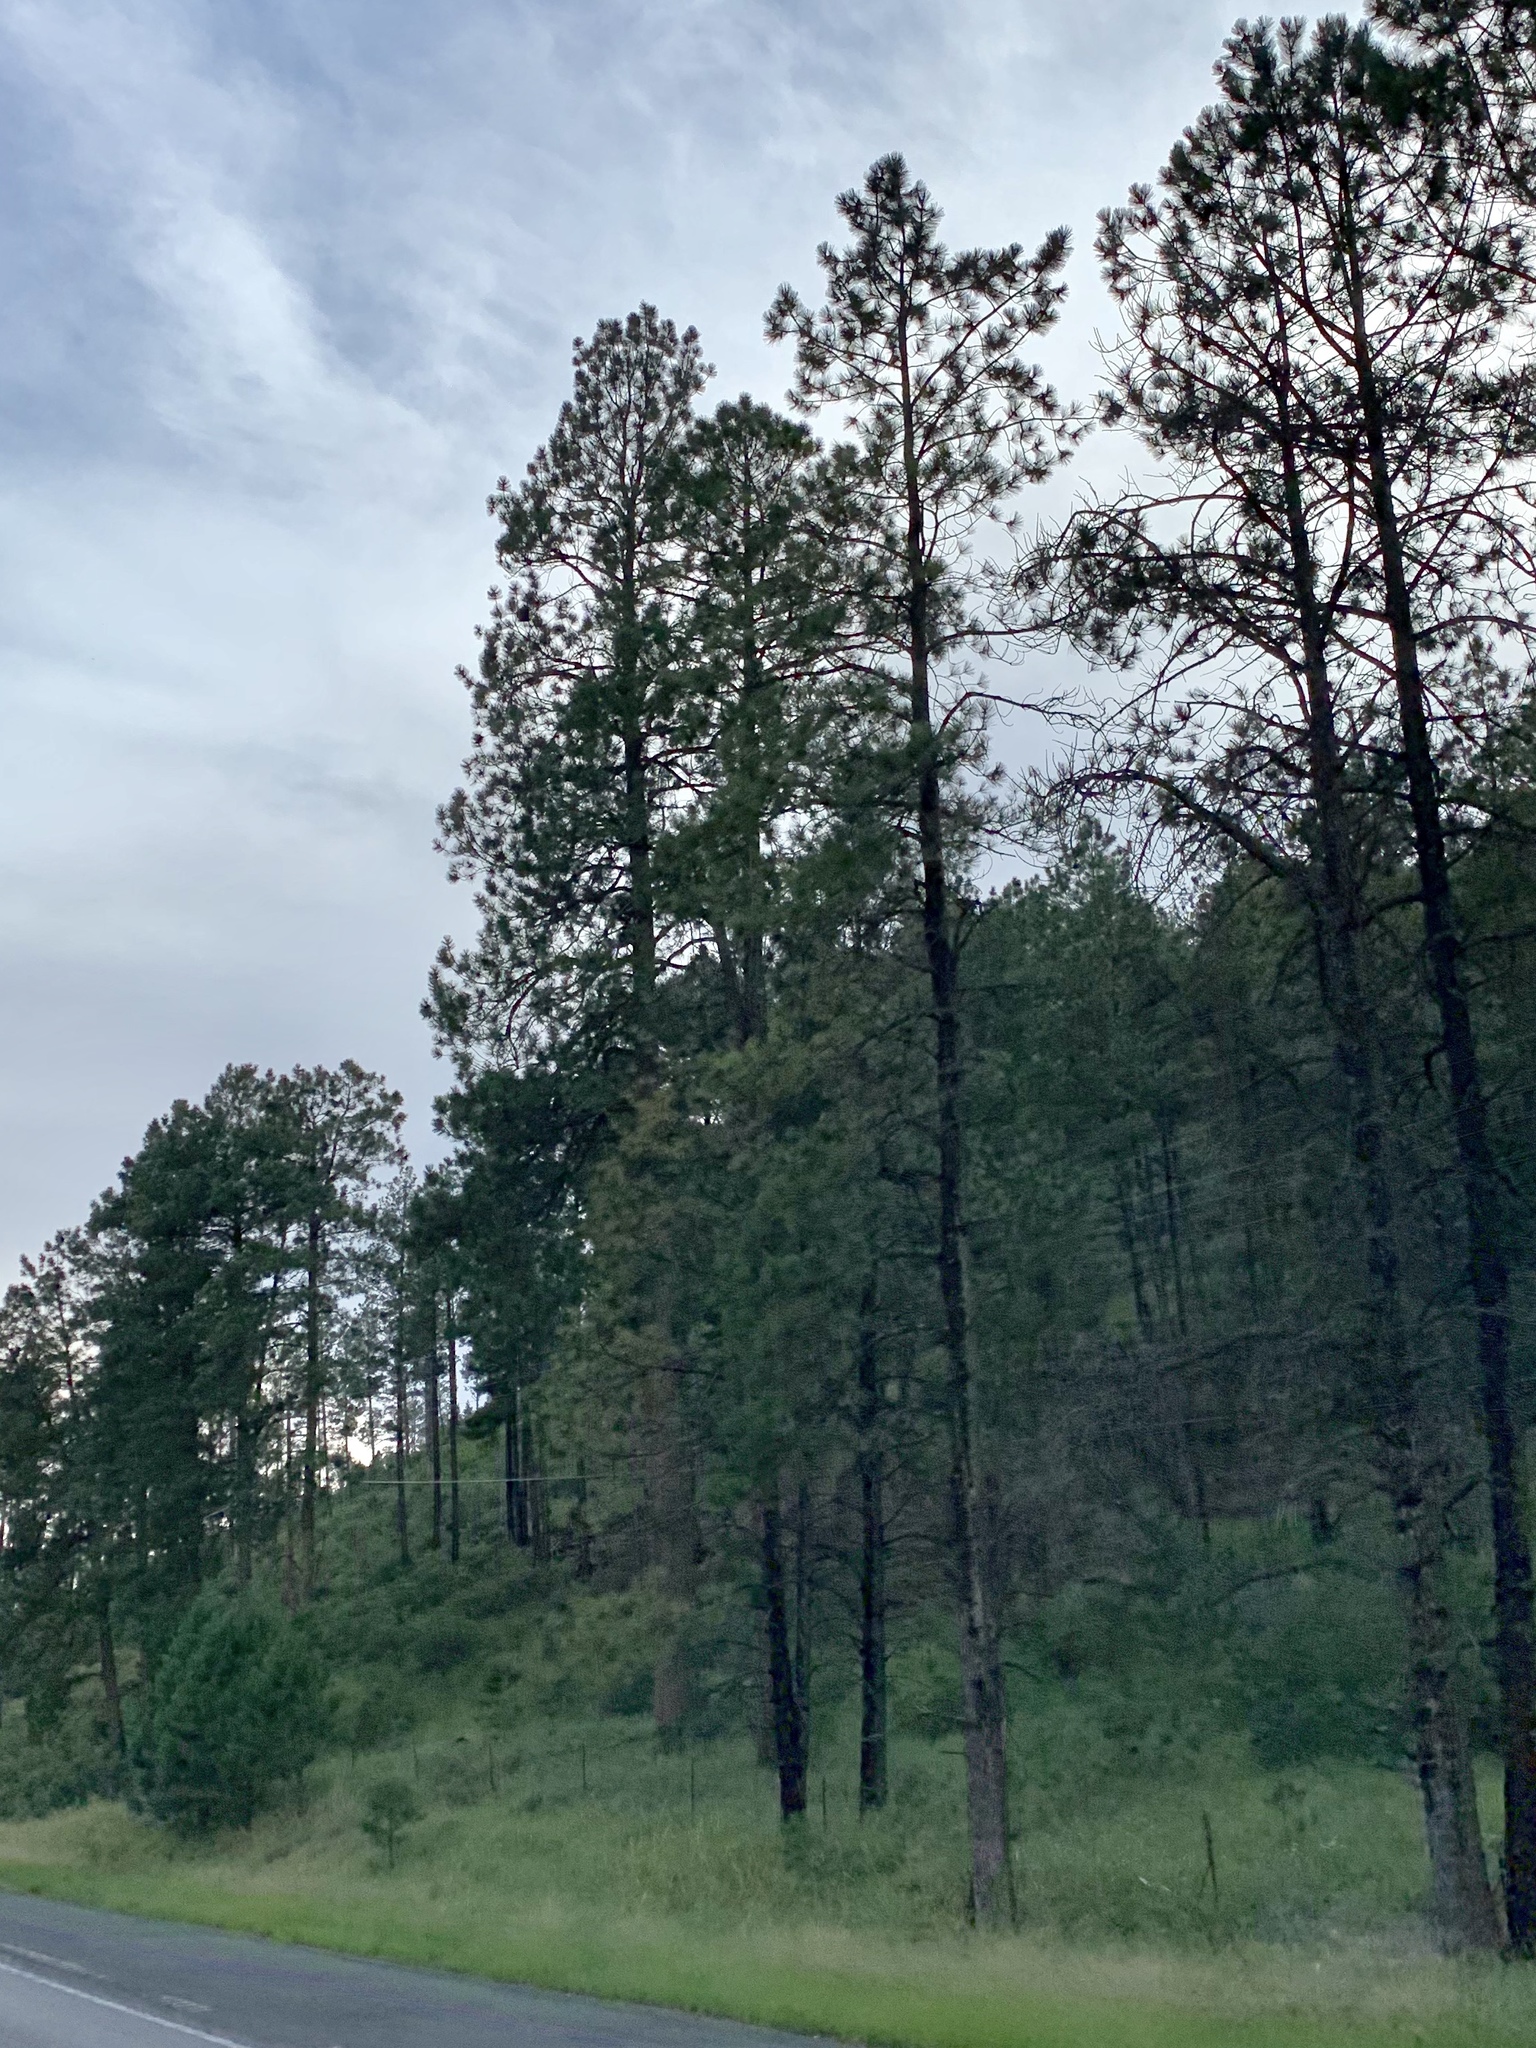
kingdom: Plantae
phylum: Tracheophyta
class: Pinopsida
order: Pinales
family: Pinaceae
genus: Pinus
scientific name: Pinus ponderosa
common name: Western yellow-pine
